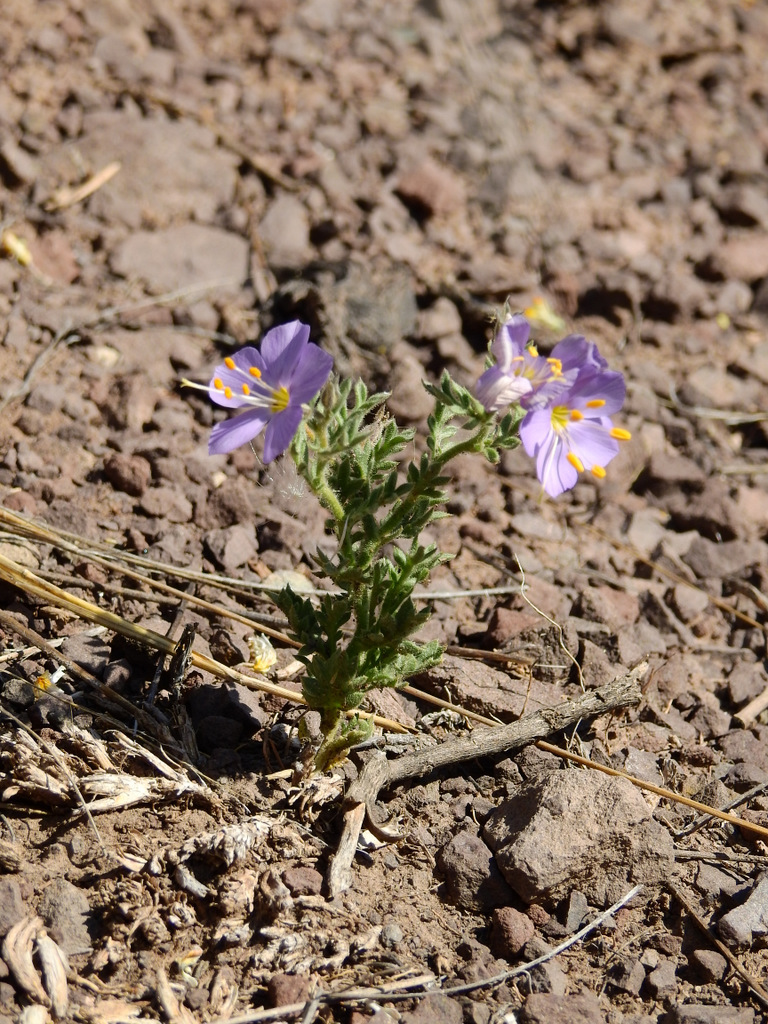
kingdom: Plantae
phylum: Tracheophyta
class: Magnoliopsida
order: Ericales
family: Polemoniaceae
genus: Giliastrum
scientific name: Giliastrum foetidum
